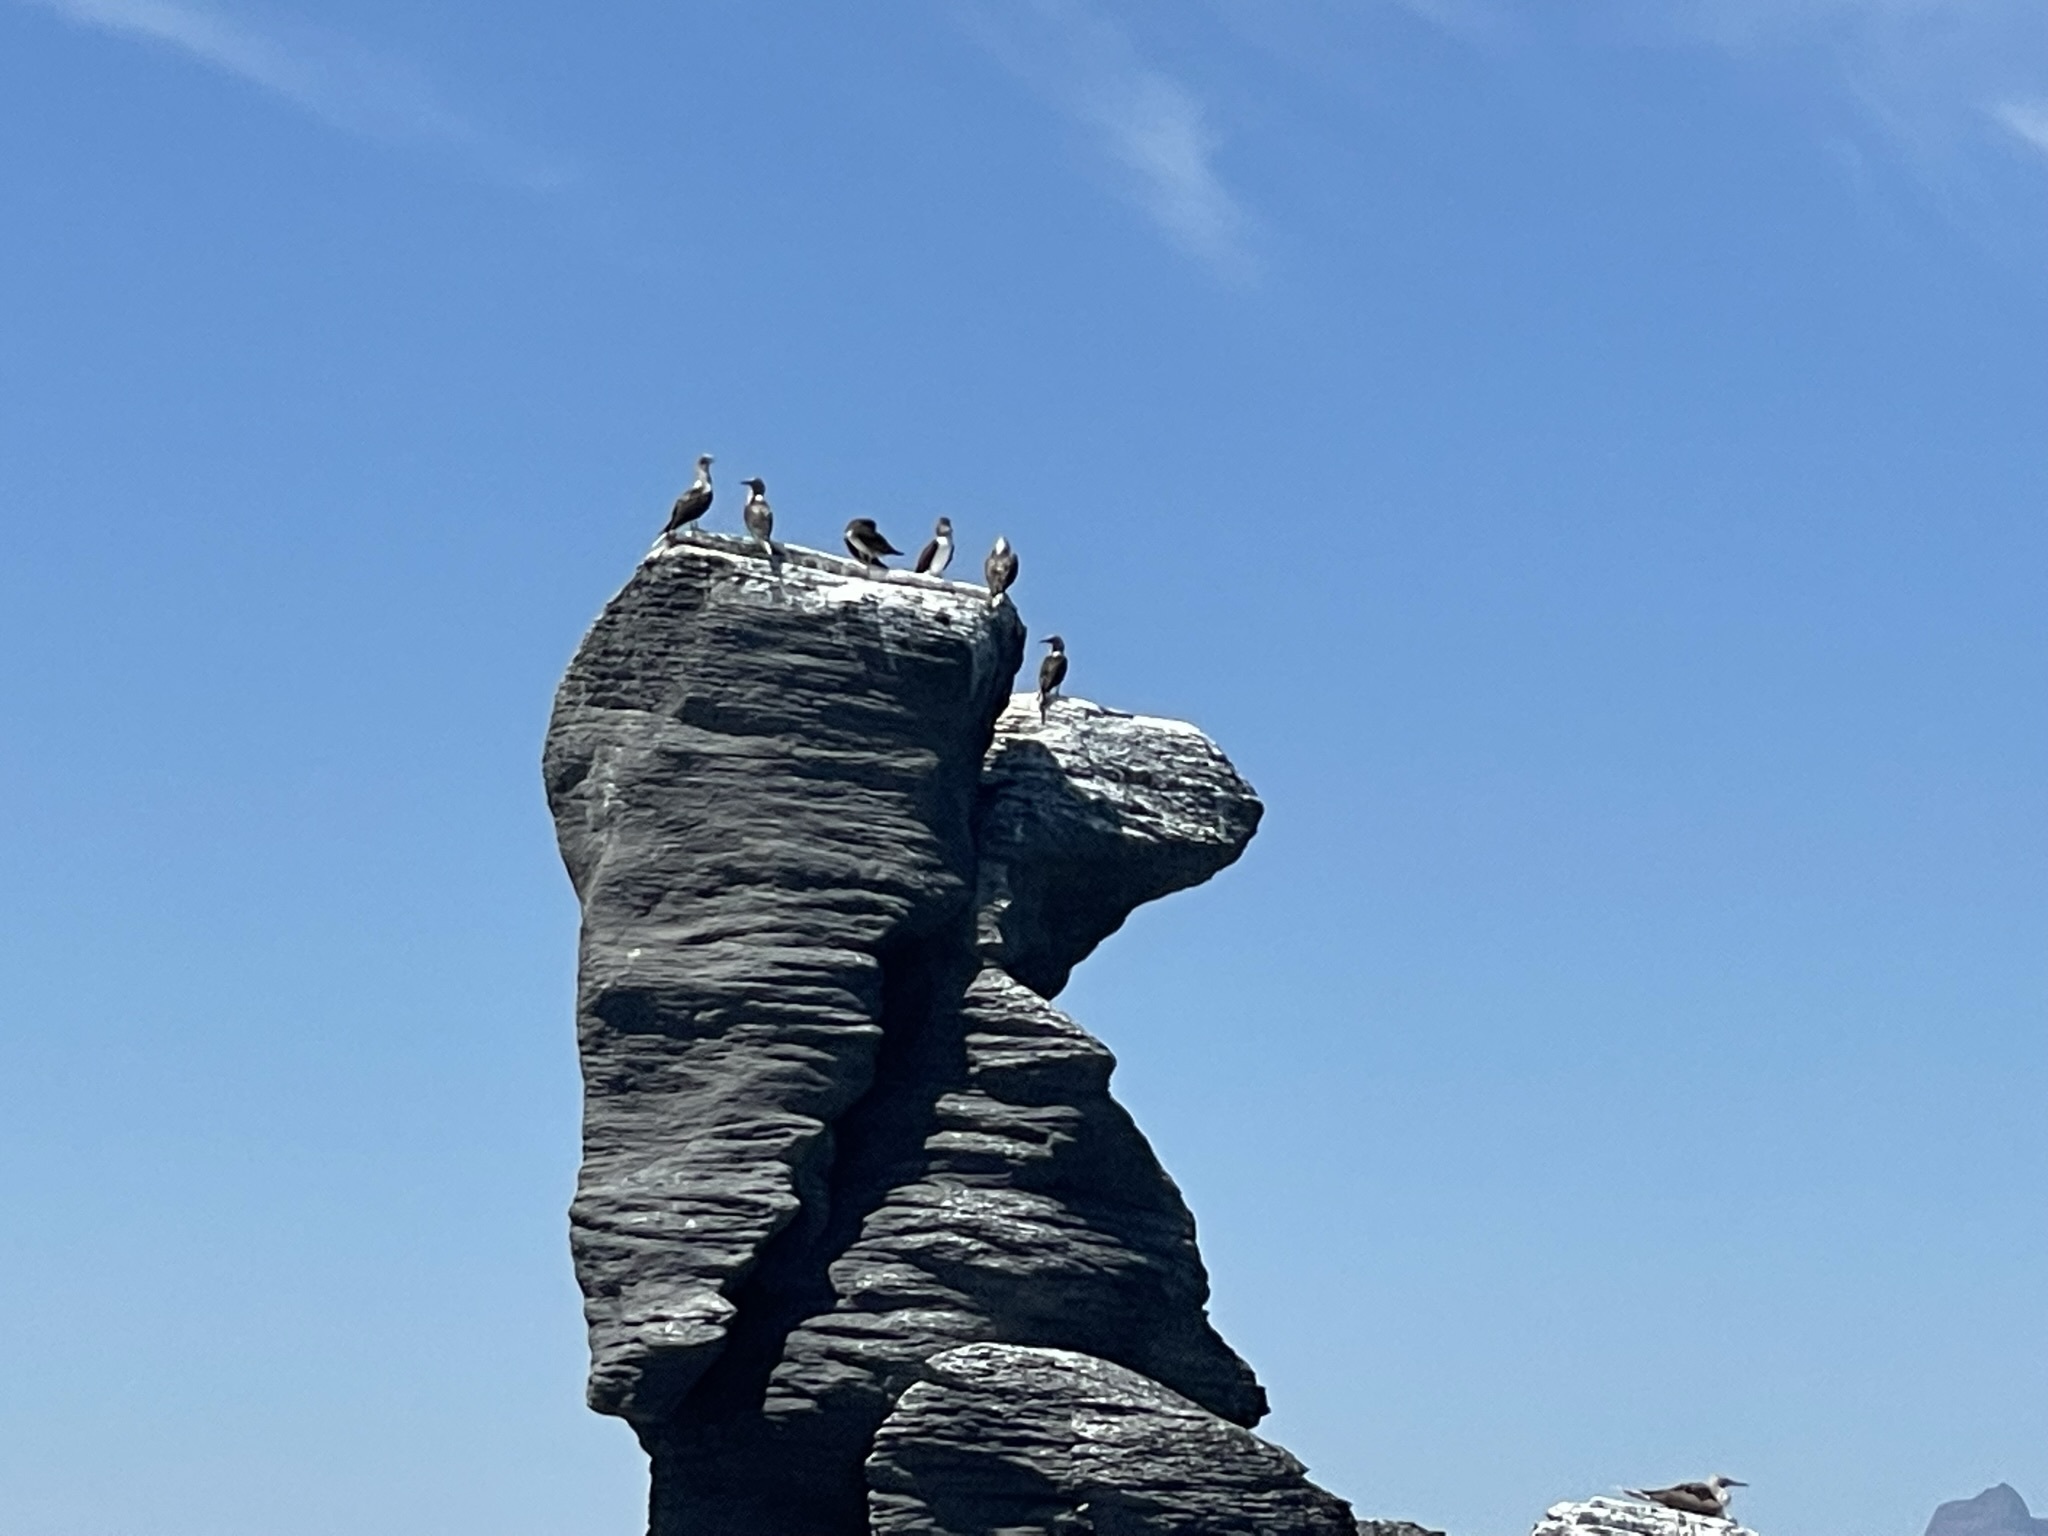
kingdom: Animalia
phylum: Chordata
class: Aves
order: Suliformes
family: Sulidae
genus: Sula
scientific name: Sula leucogaster
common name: Brown booby
